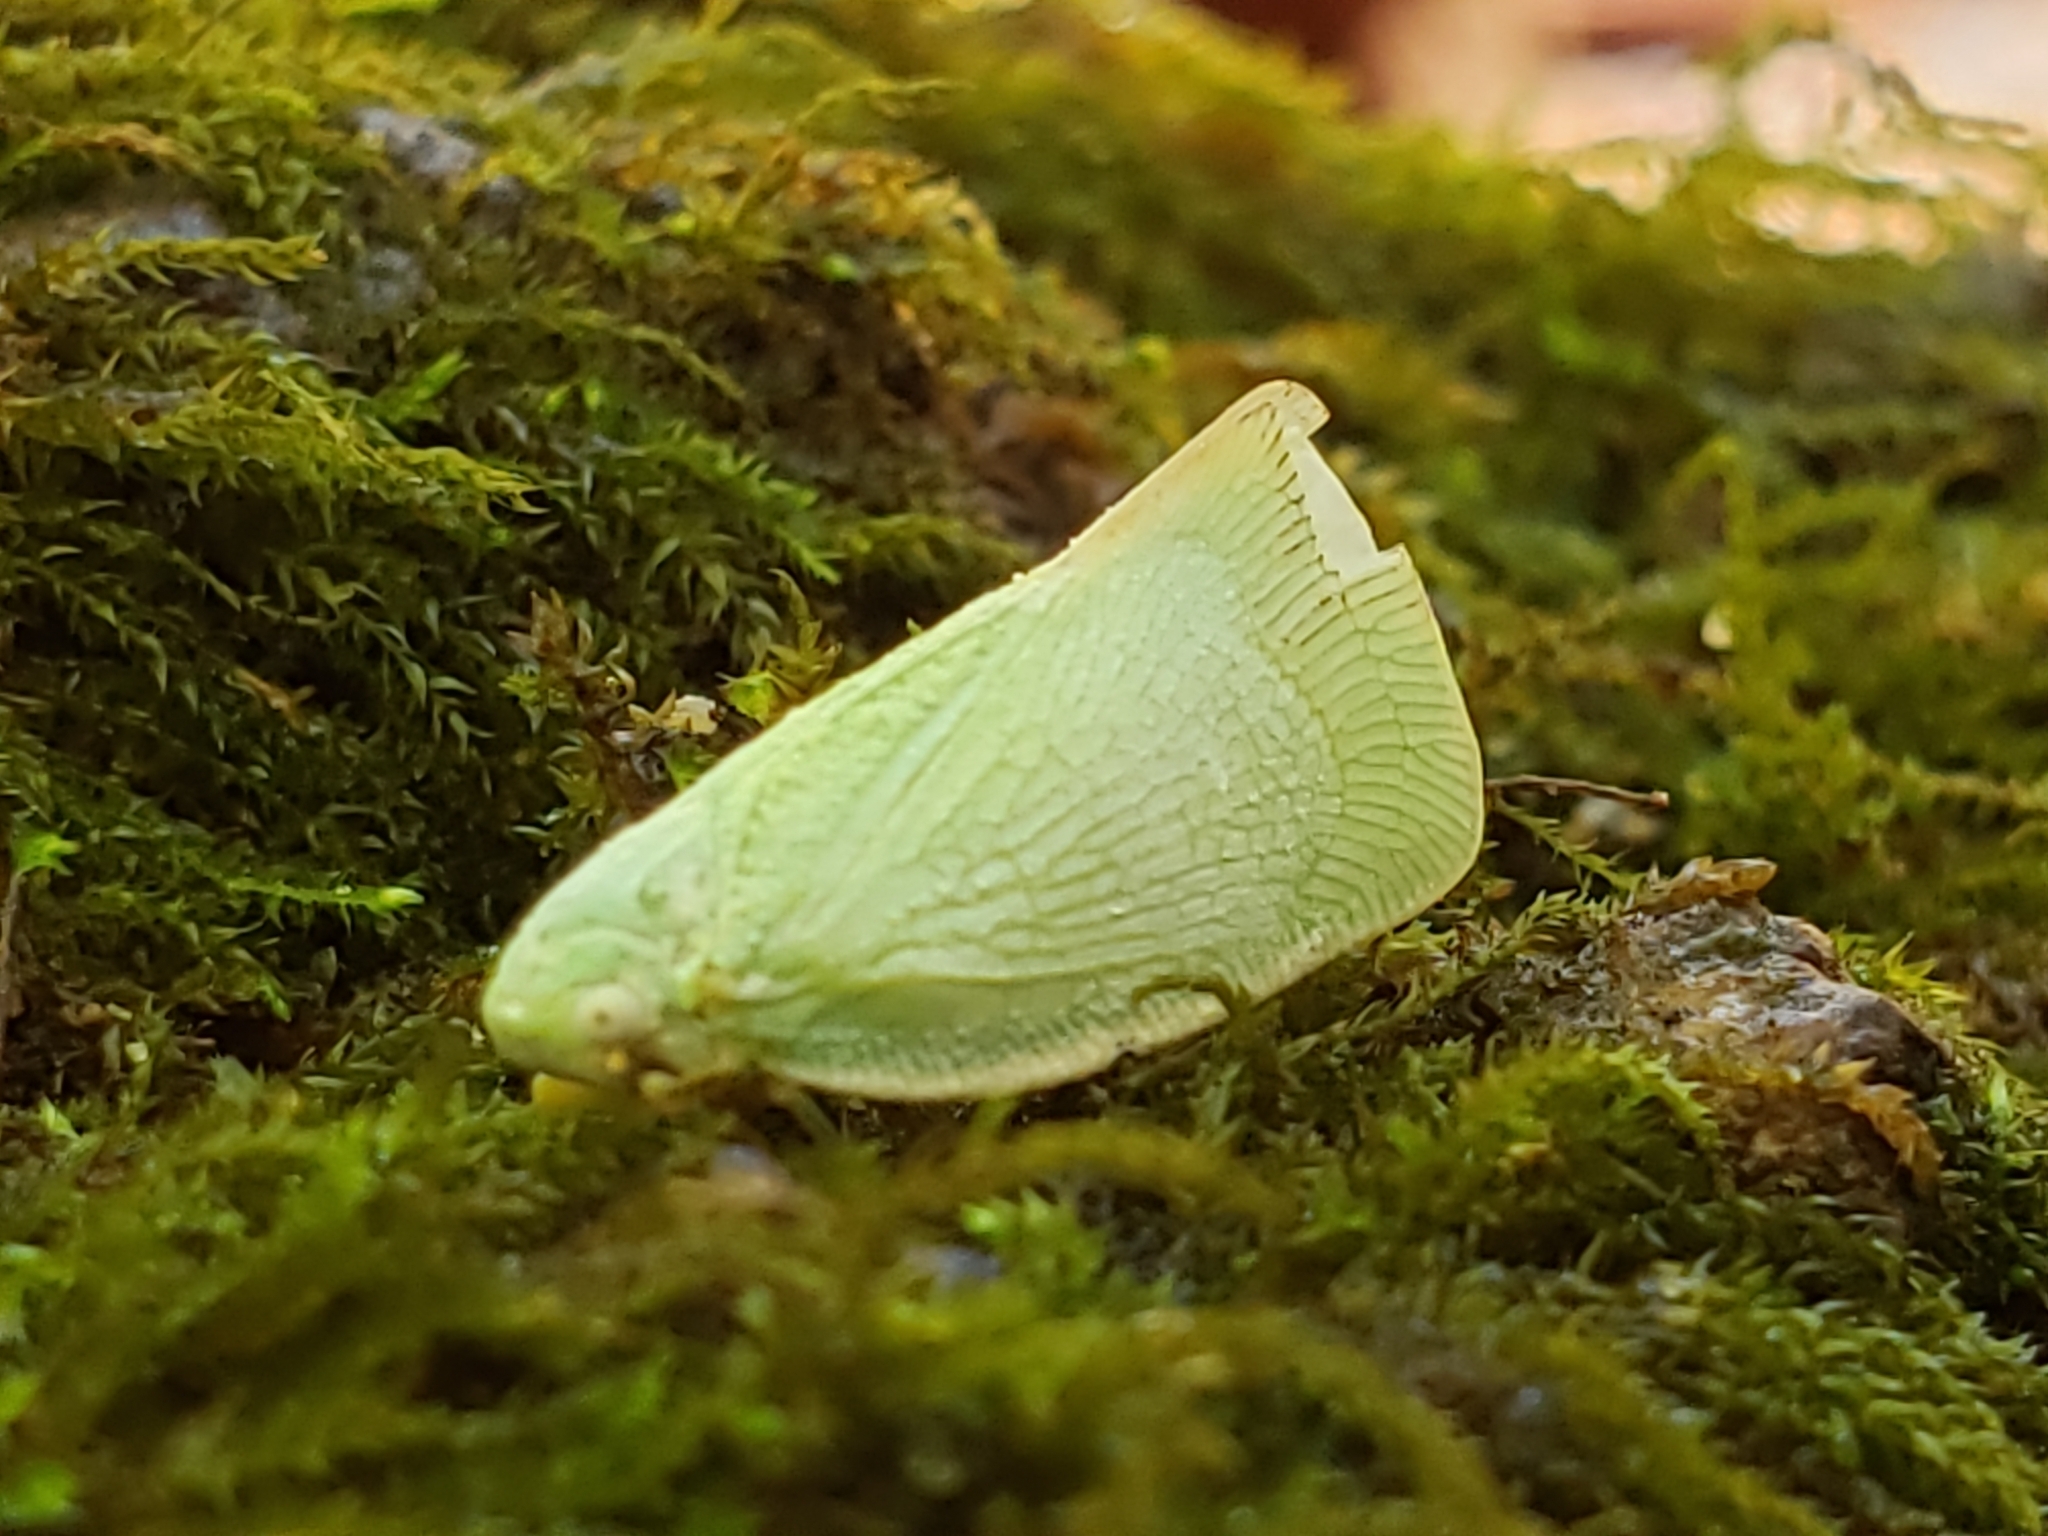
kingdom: Animalia
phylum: Arthropoda
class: Insecta
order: Hemiptera
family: Flatidae
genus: Flatormenis
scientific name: Flatormenis proxima
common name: Northern flatid planthopper
